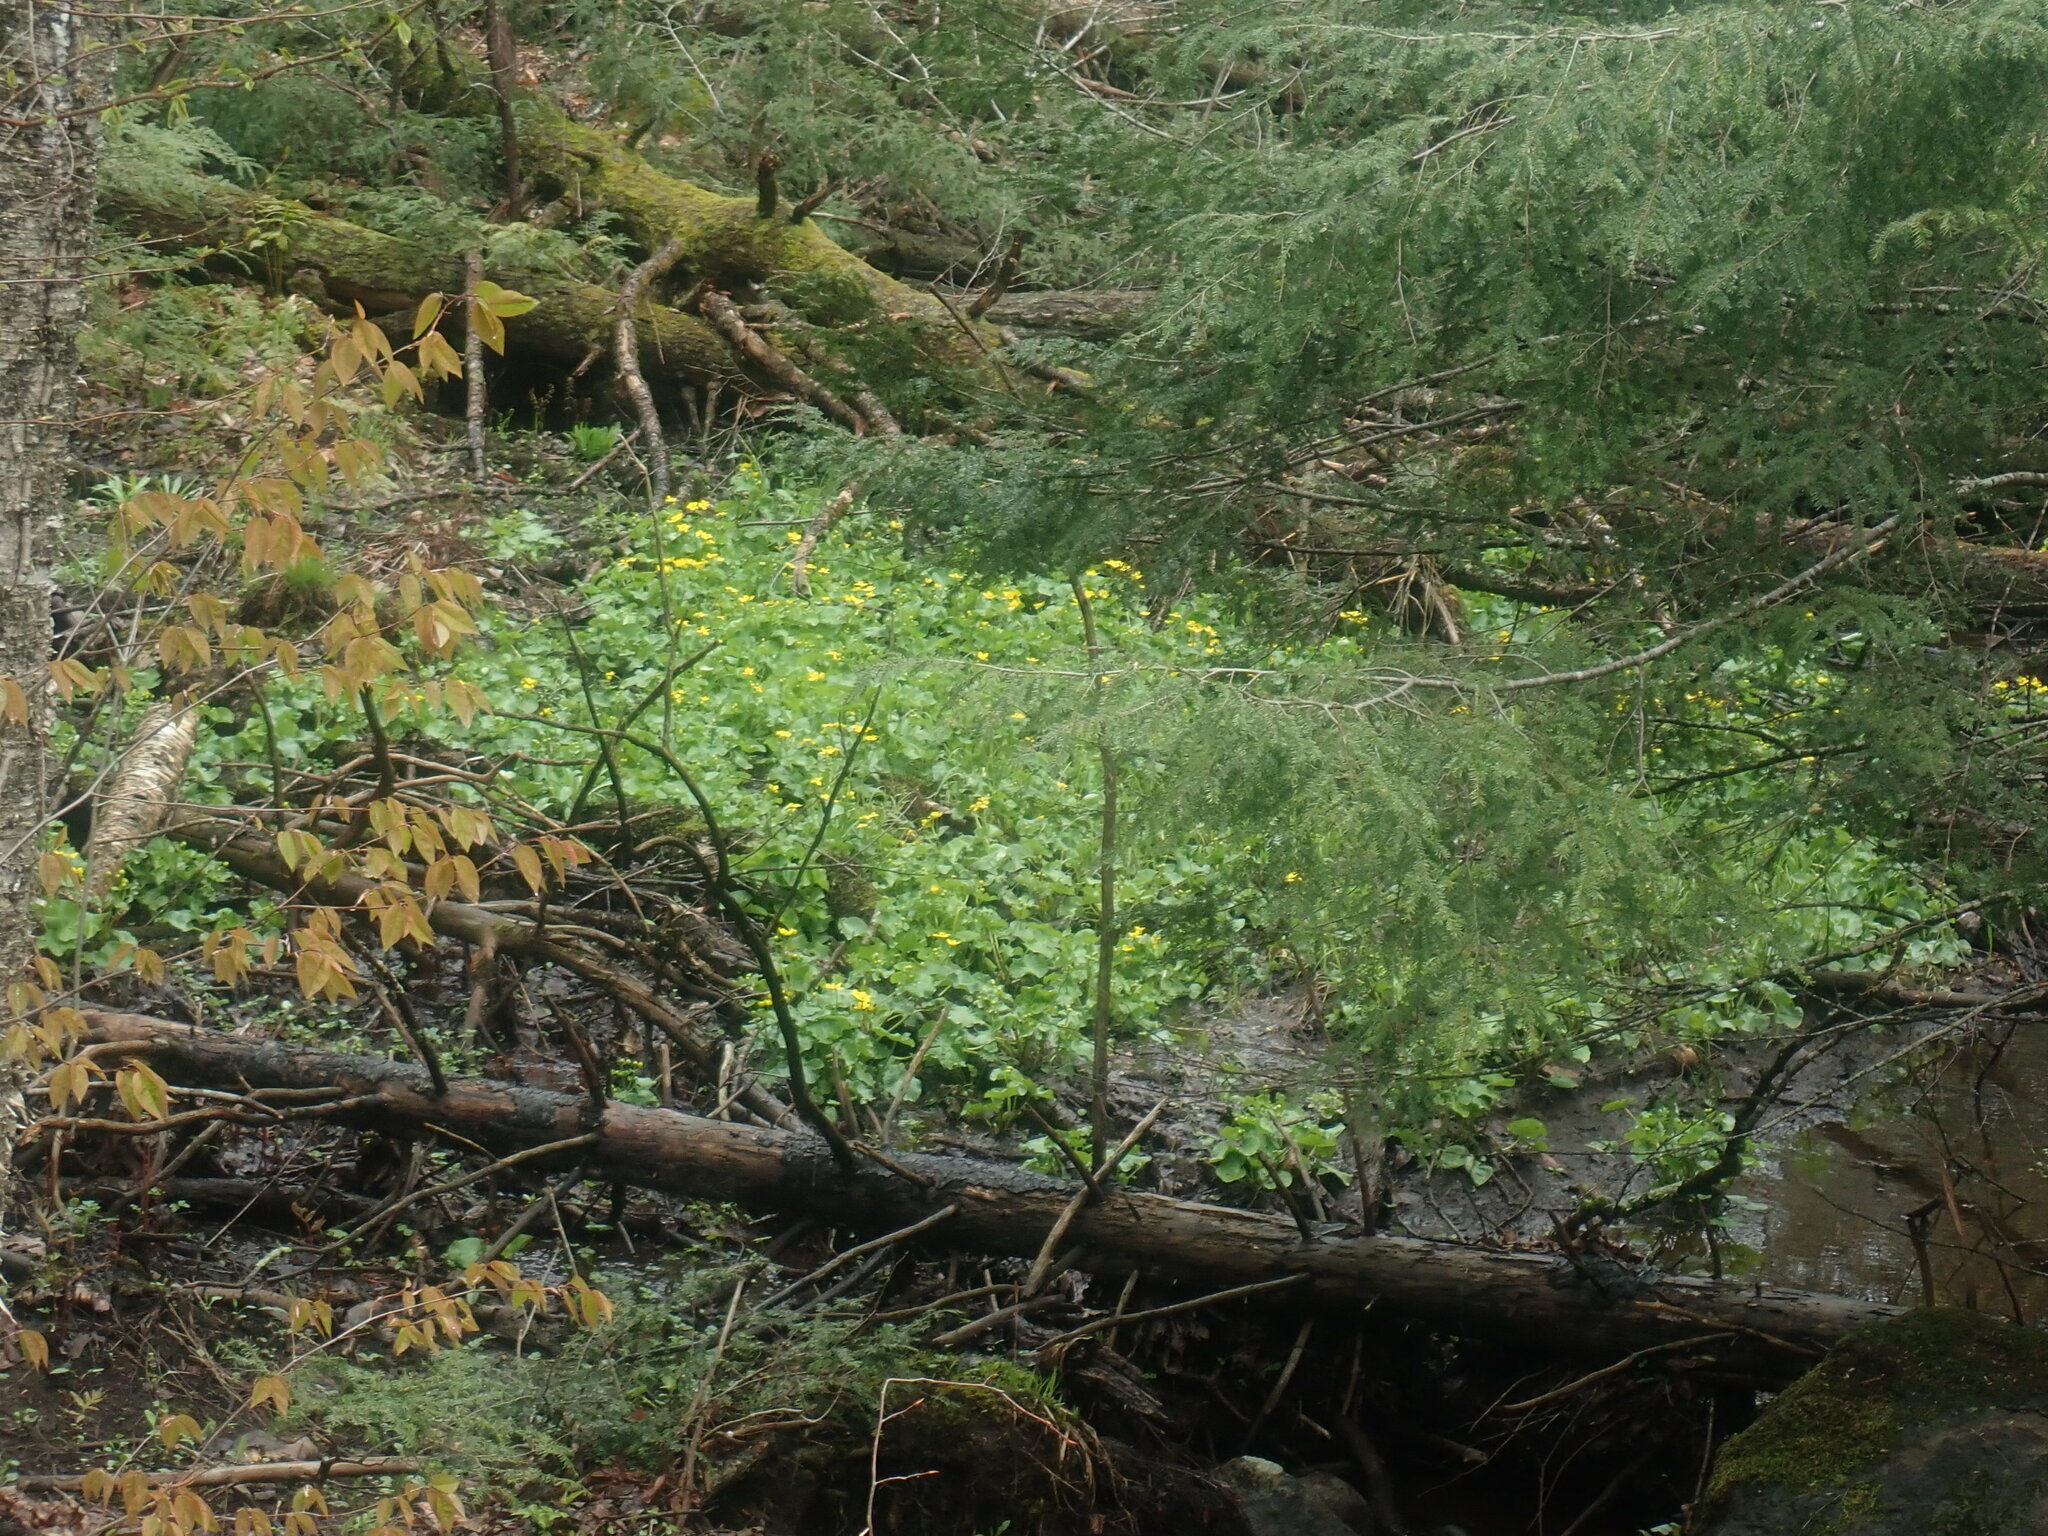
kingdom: Plantae
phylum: Tracheophyta
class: Magnoliopsida
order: Ranunculales
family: Ranunculaceae
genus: Caltha
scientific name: Caltha palustris
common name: Marsh marigold
